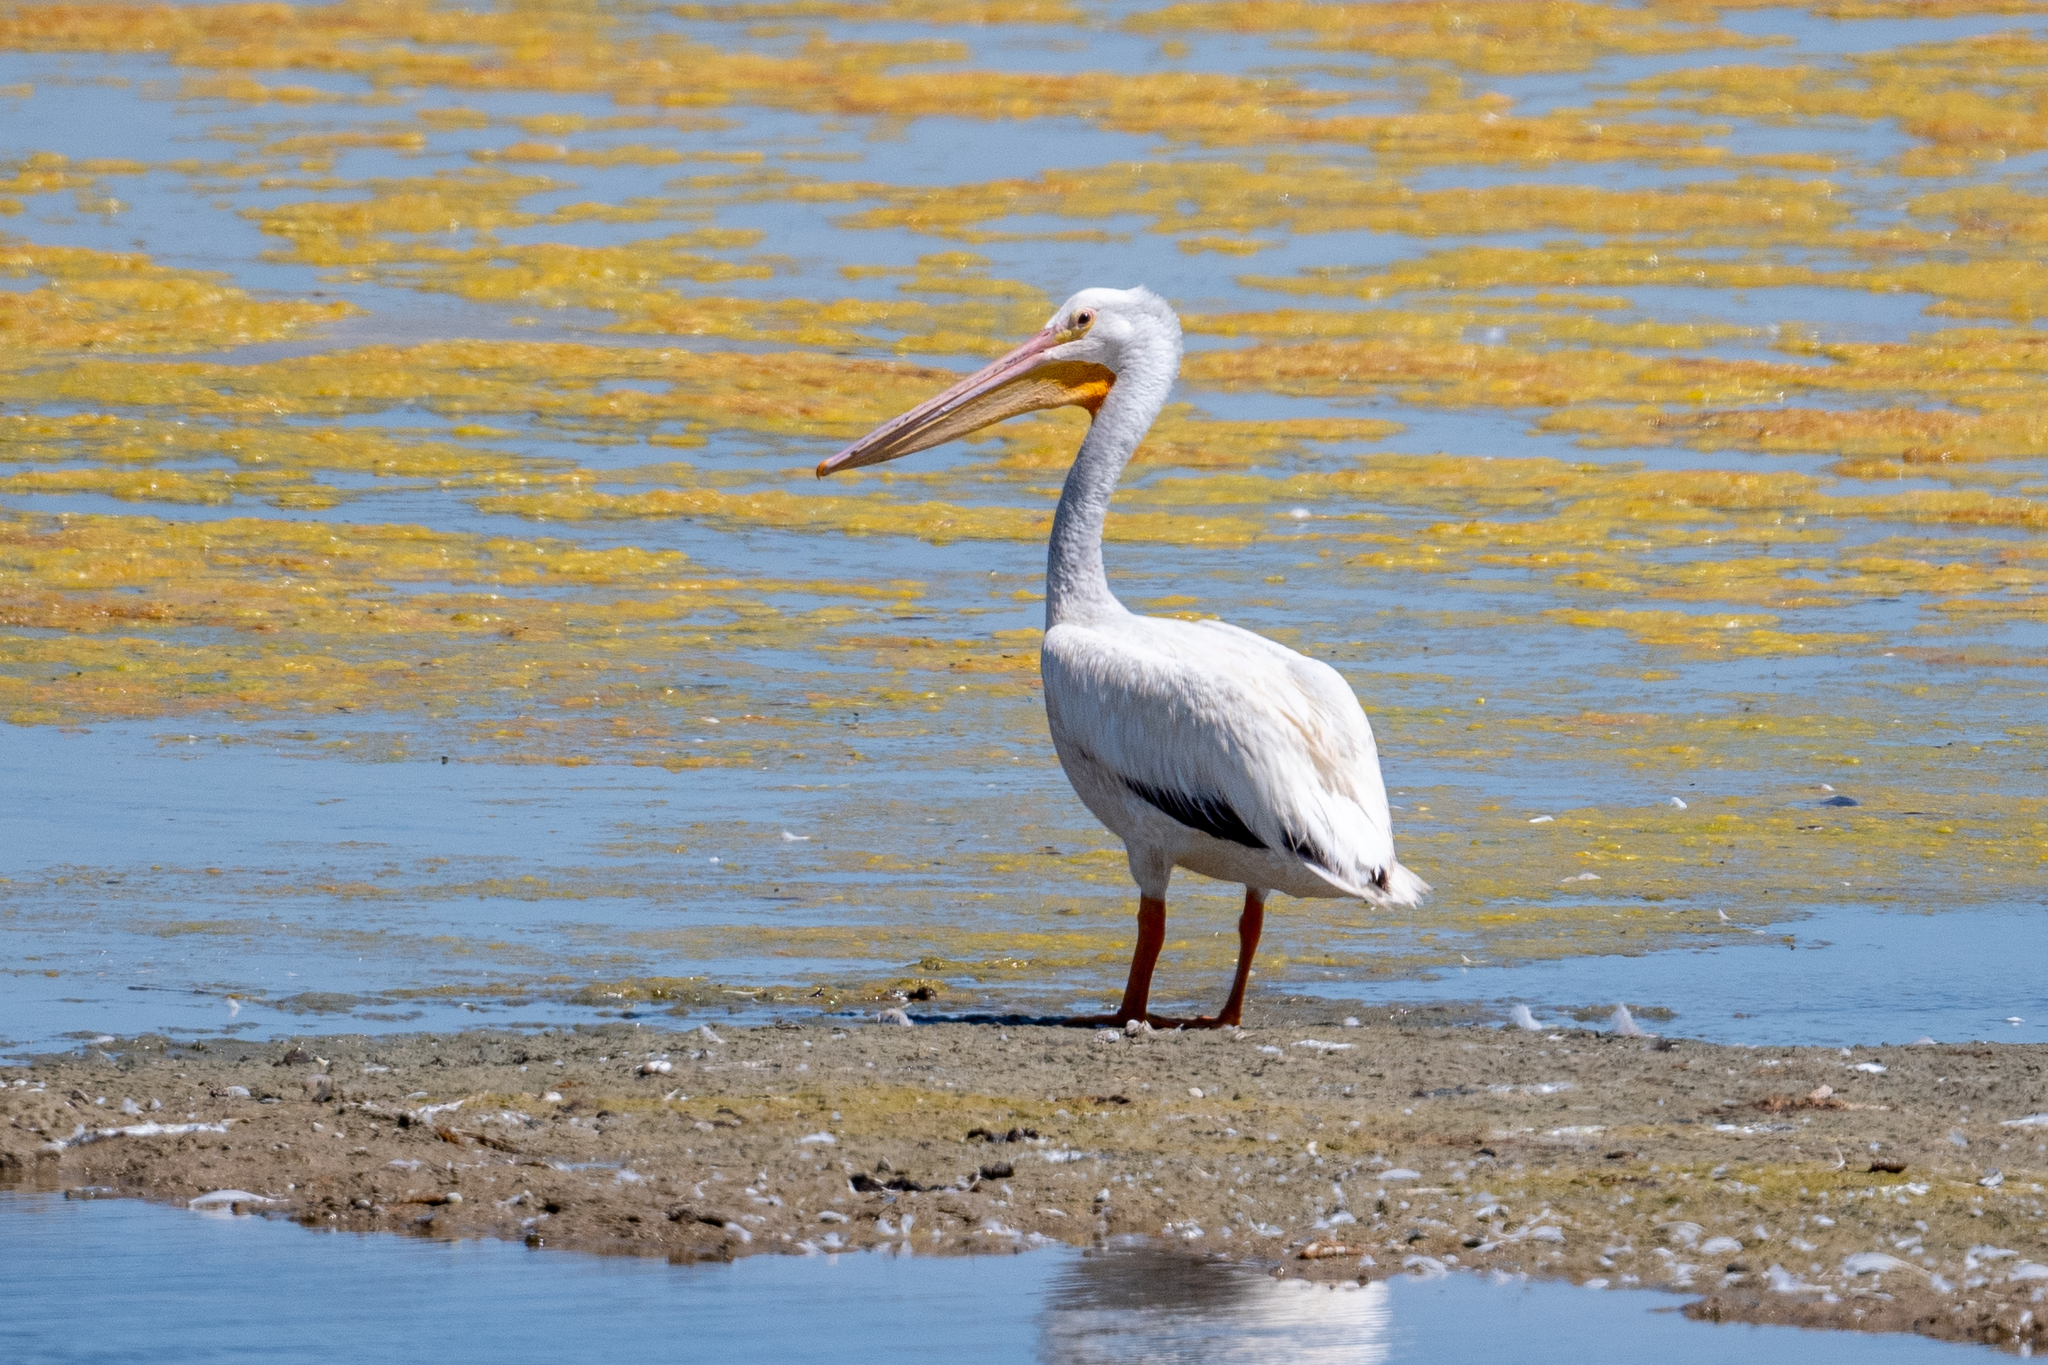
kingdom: Animalia
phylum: Chordata
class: Aves
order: Pelecaniformes
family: Pelecanidae
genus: Pelecanus
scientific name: Pelecanus erythrorhynchos
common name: American white pelican
